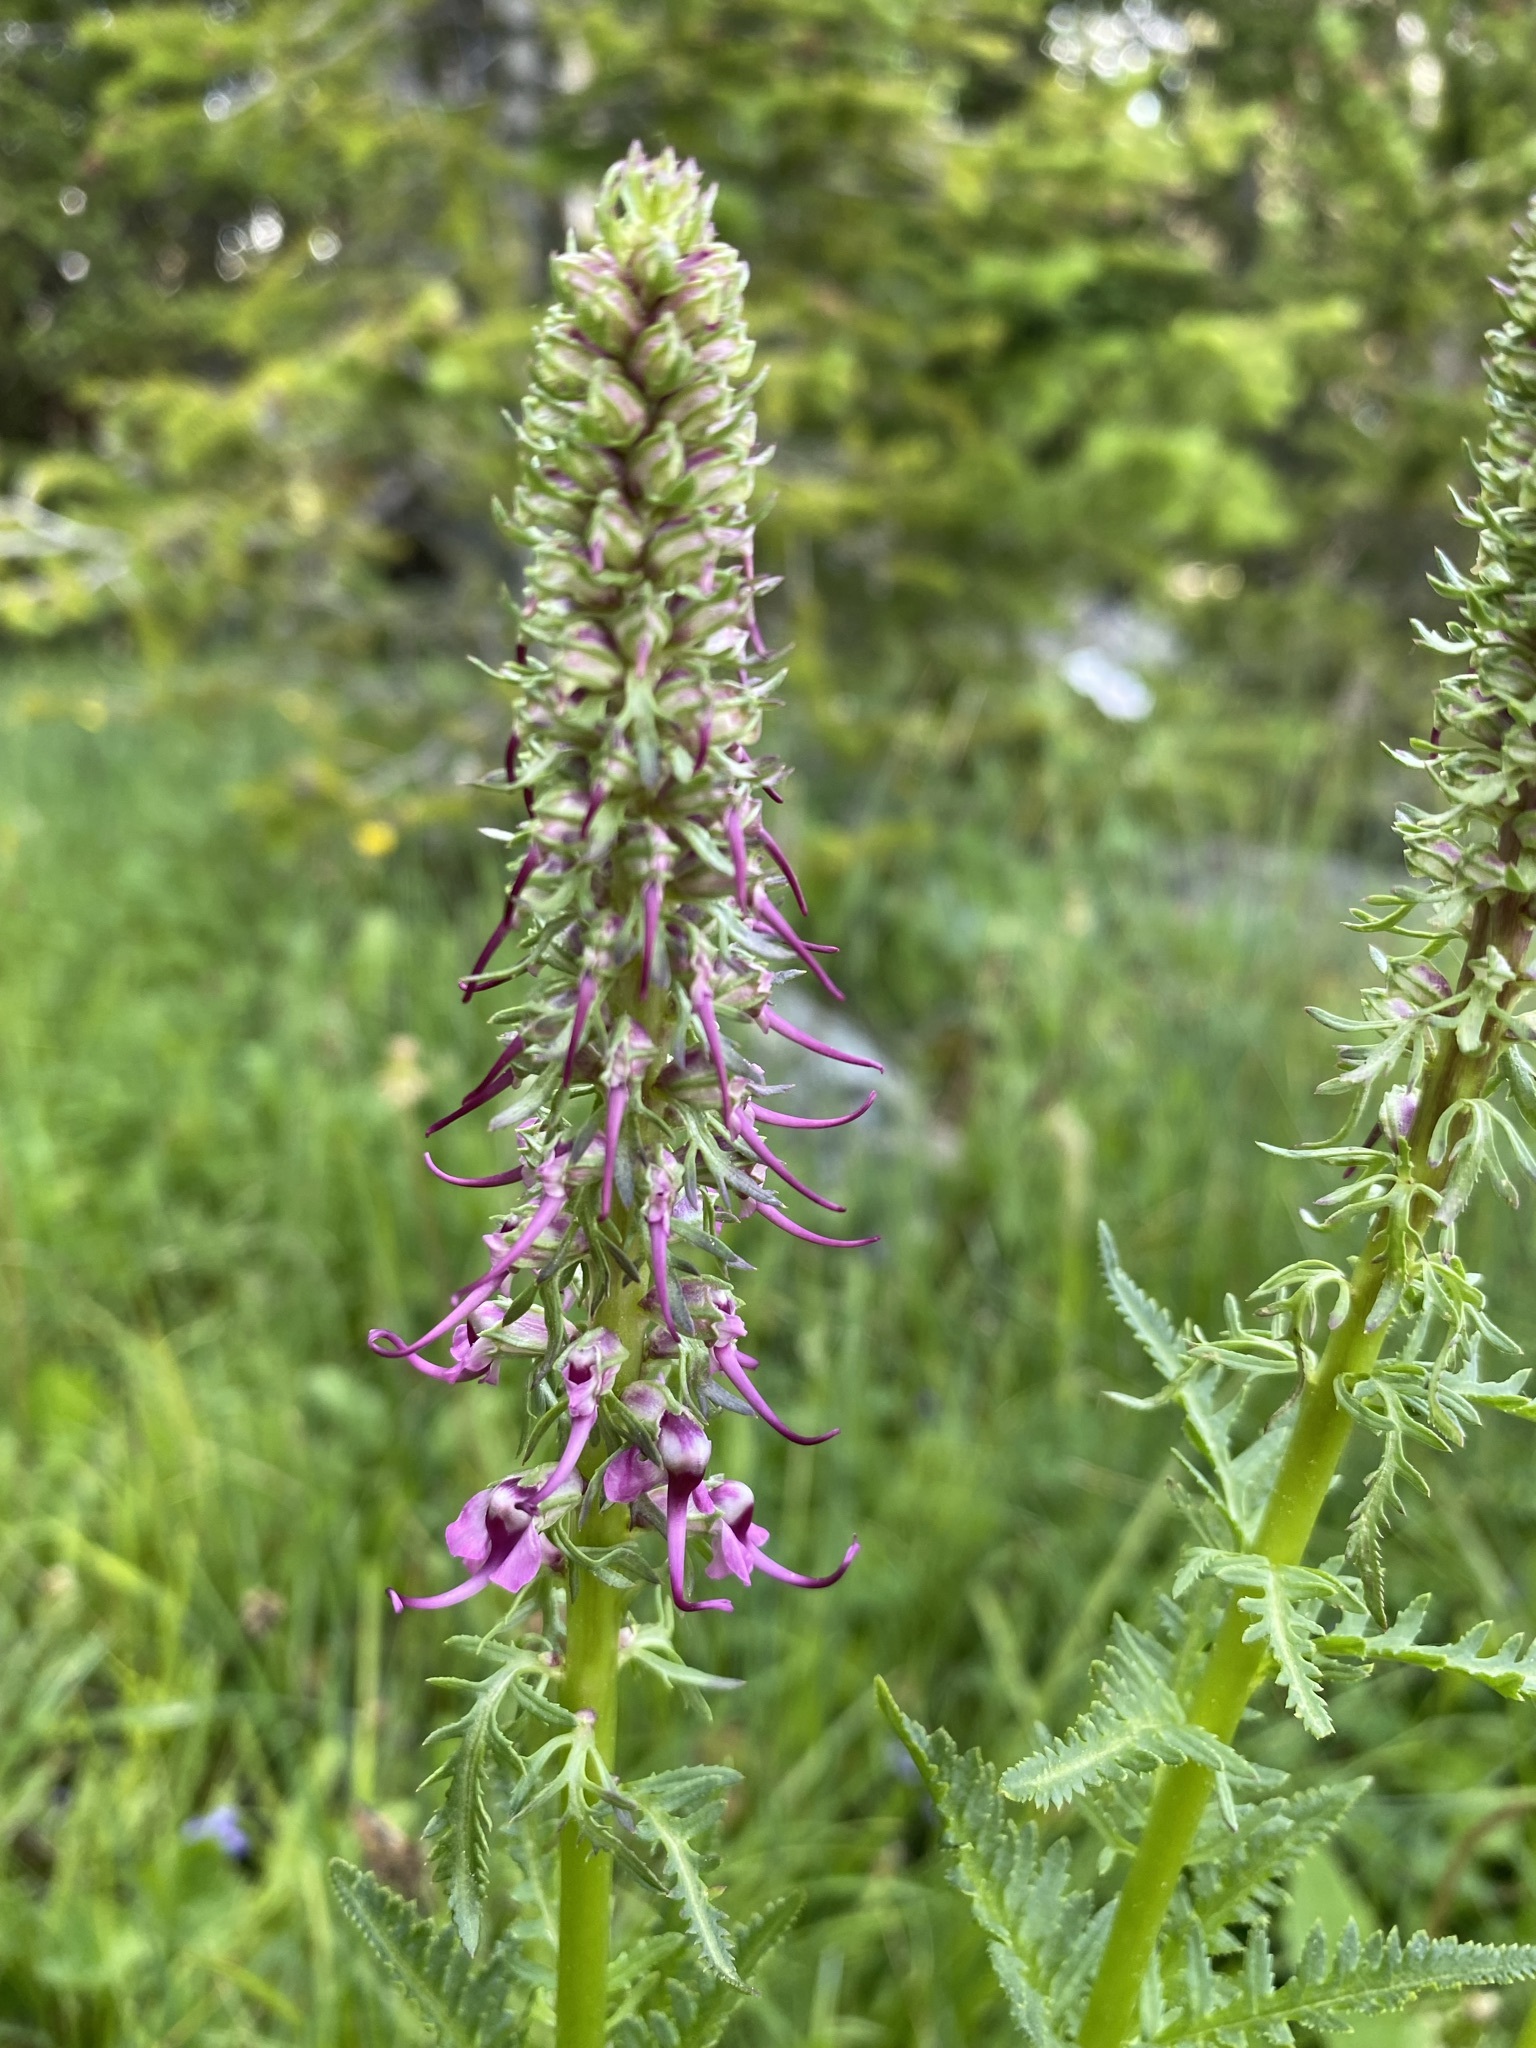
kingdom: Plantae
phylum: Tracheophyta
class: Magnoliopsida
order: Lamiales
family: Orobanchaceae
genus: Pedicularis
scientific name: Pedicularis groenlandica
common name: Elephant's-head
